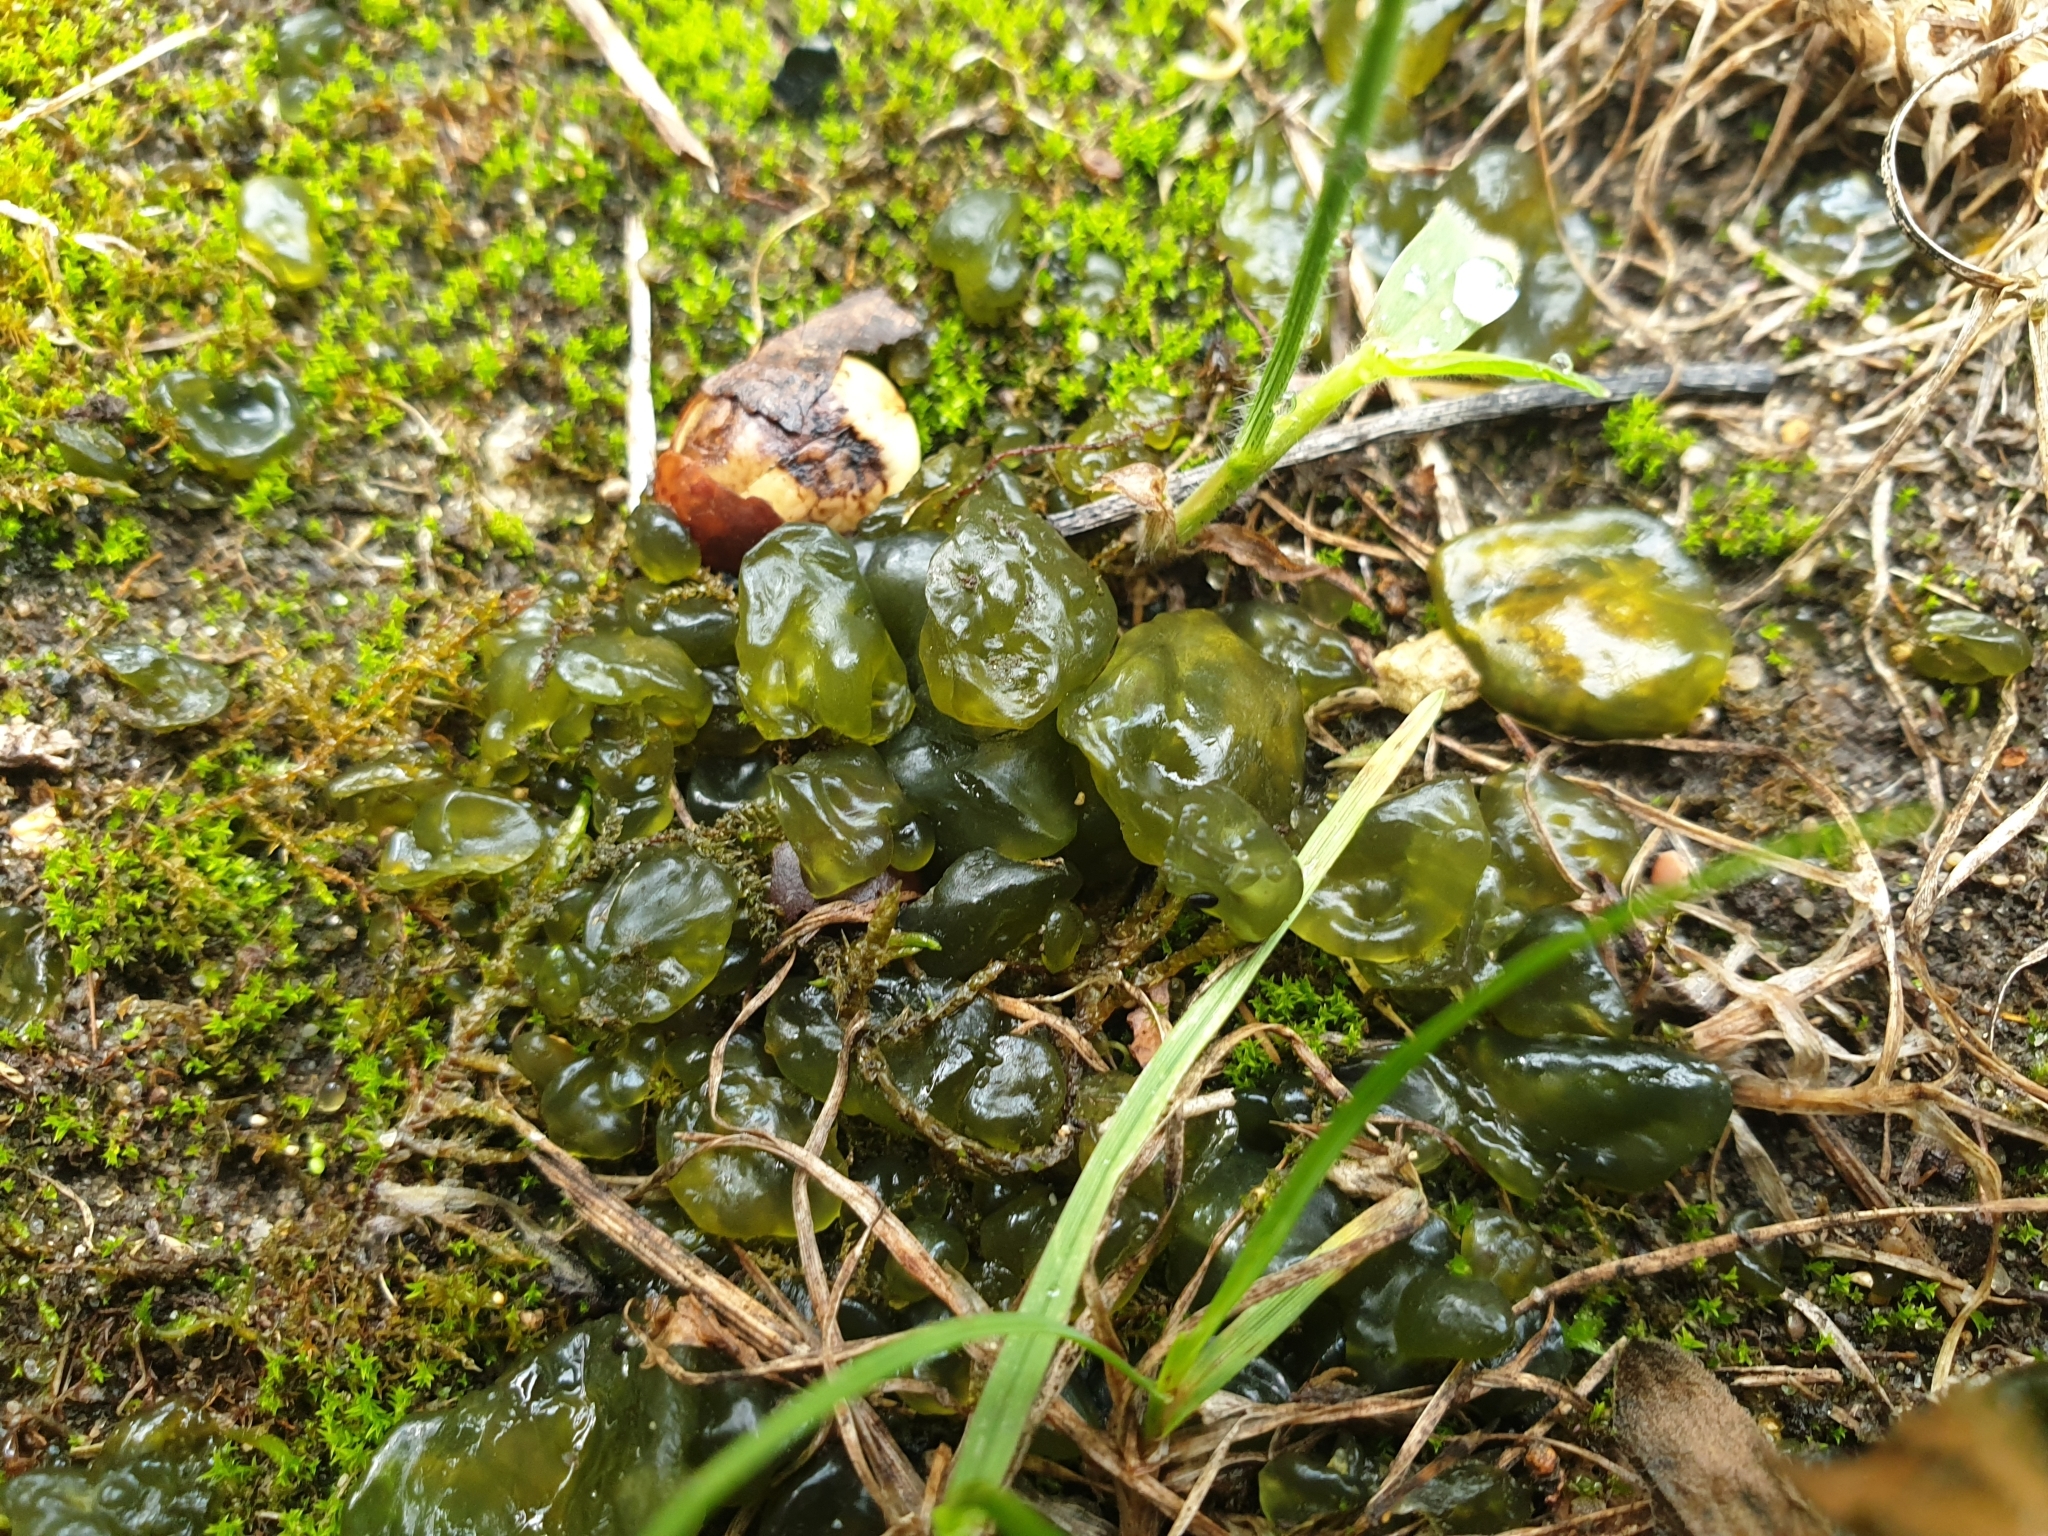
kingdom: Bacteria
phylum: Cyanobacteria
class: Cyanobacteriia
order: Cyanobacteriales
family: Nostocaceae
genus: Nostoc
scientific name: Nostoc commune
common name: Star jelly
